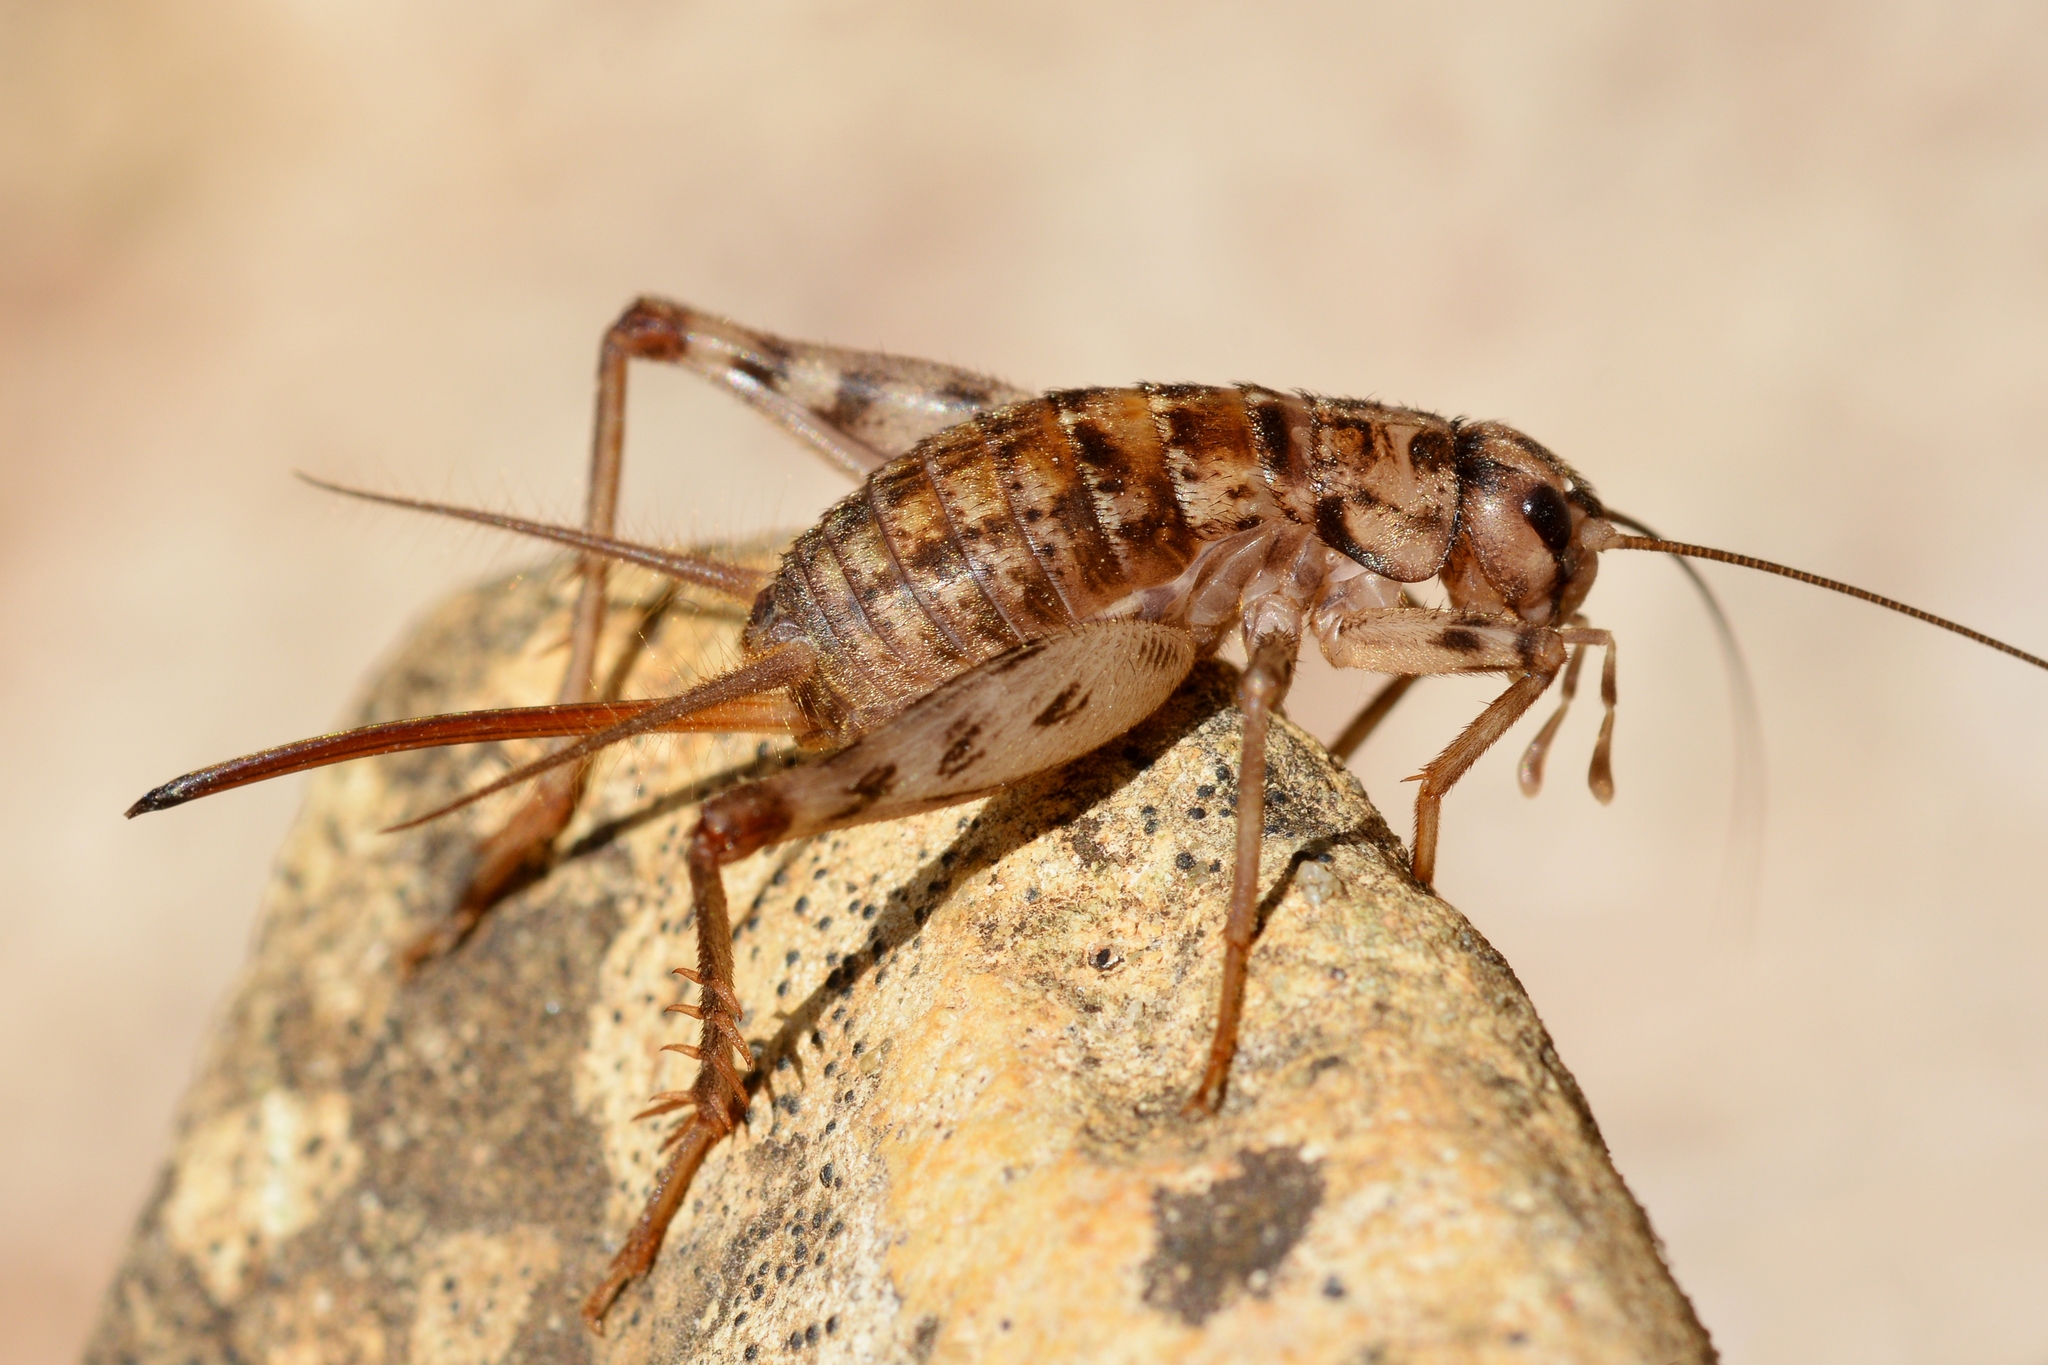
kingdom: Animalia
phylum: Arthropoda
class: Insecta
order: Orthoptera
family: Gryllidae
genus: Gryllomorpha
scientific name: Gryllomorpha dalmatina
